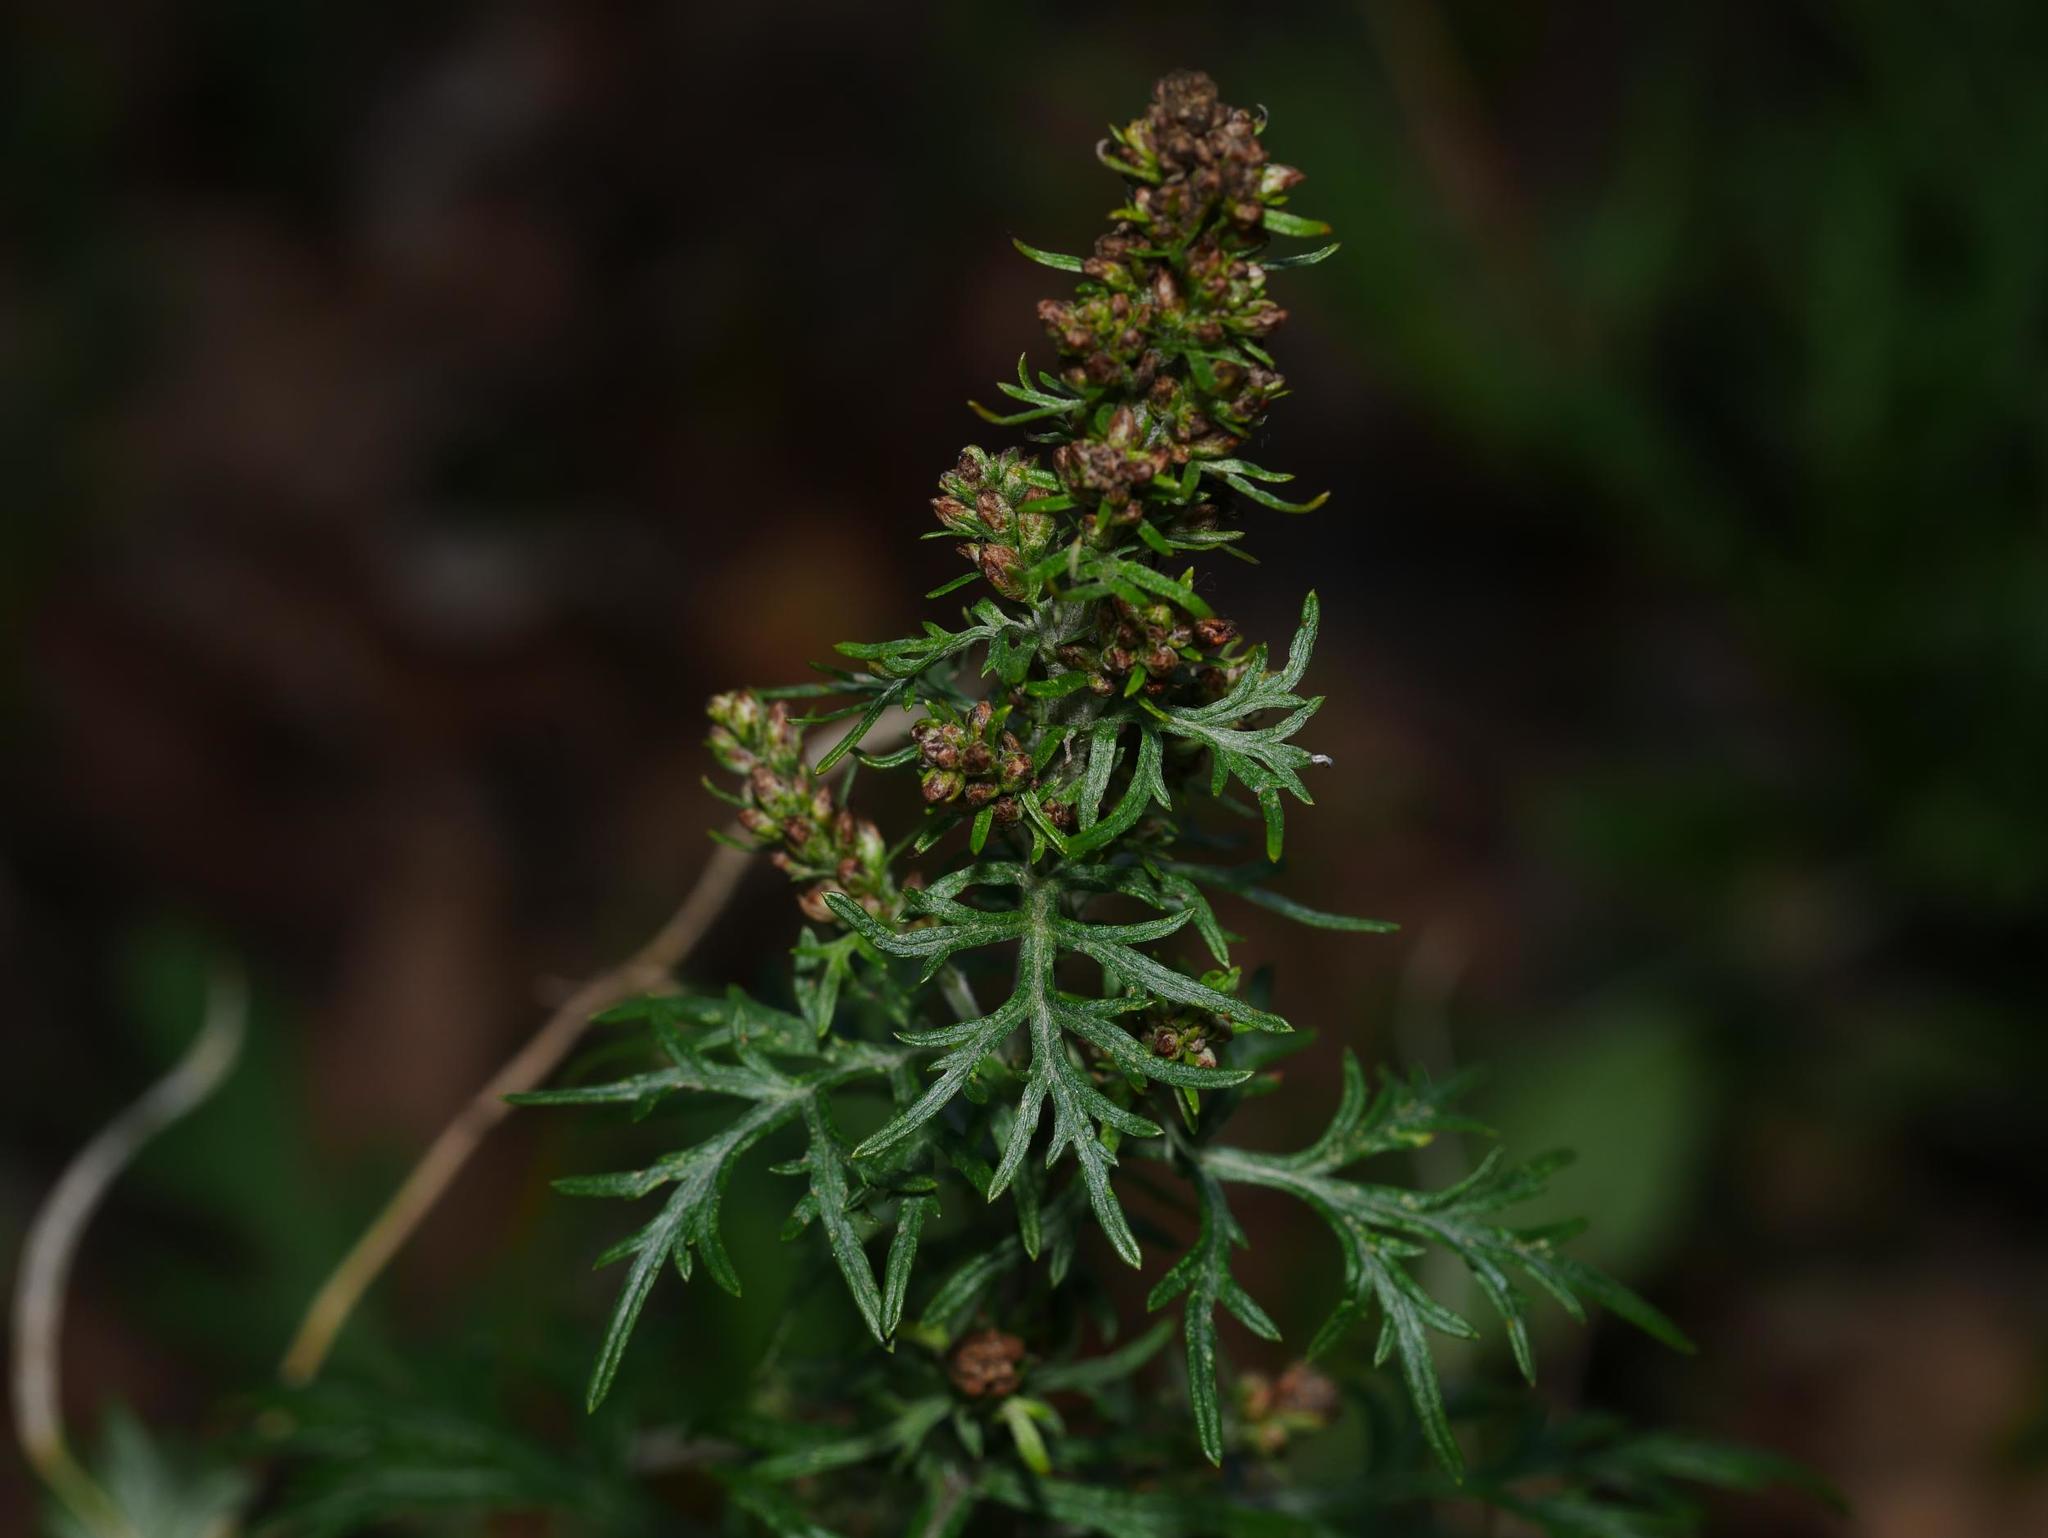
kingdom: Plantae
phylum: Tracheophyta
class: Magnoliopsida
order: Asterales
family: Asteraceae
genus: Artemisia
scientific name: Artemisia vulgaris
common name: Mugwort
